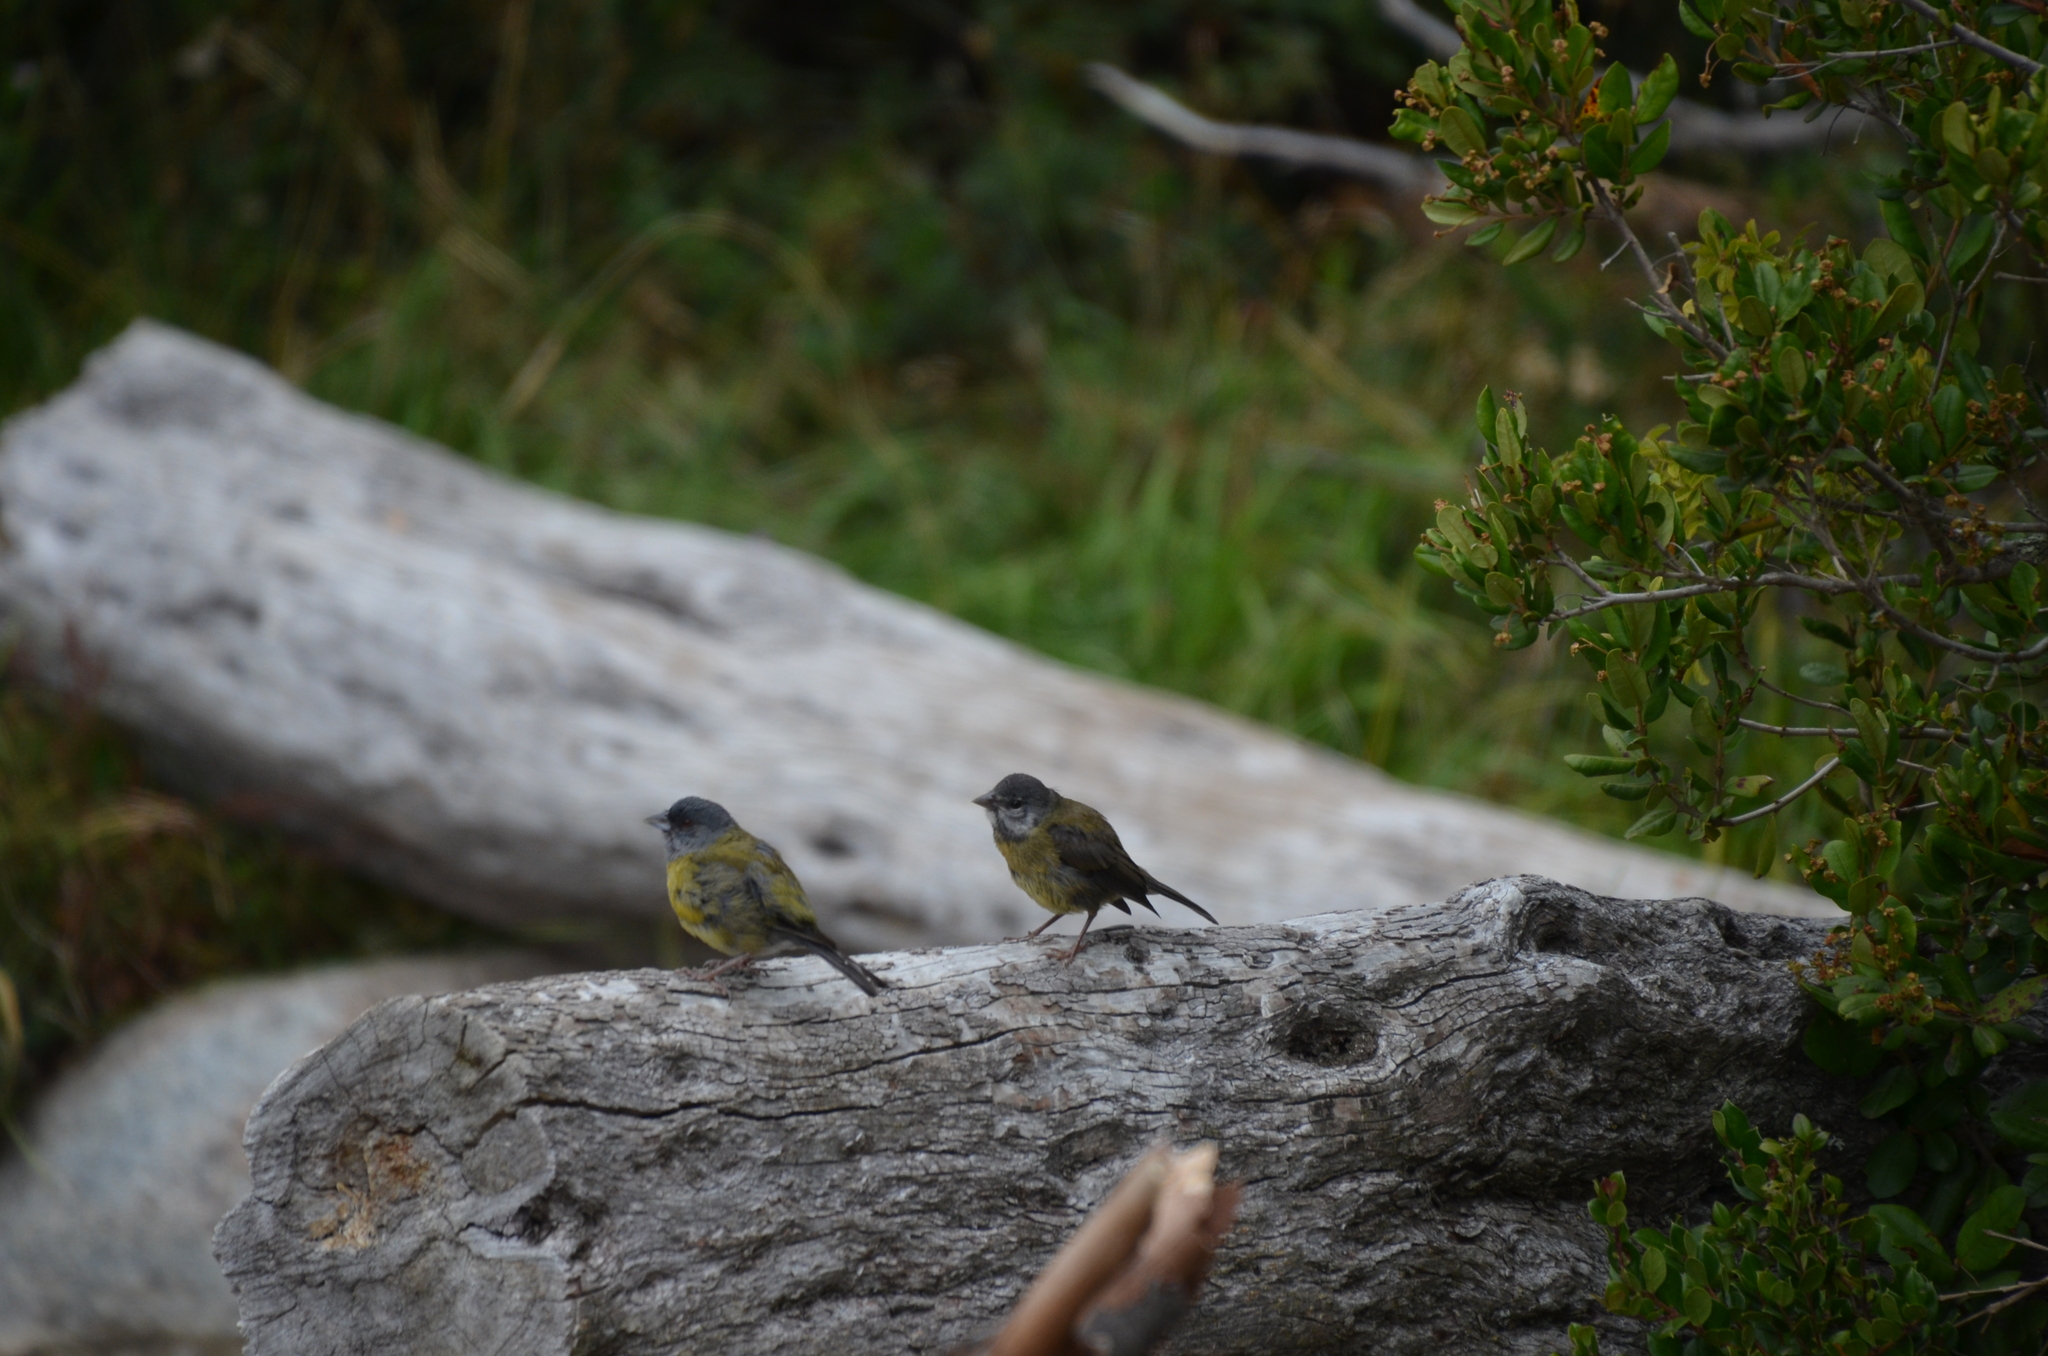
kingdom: Animalia
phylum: Chordata
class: Aves
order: Passeriformes
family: Thraupidae
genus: Phrygilus
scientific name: Phrygilus patagonicus
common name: Patagonian sierra finch
